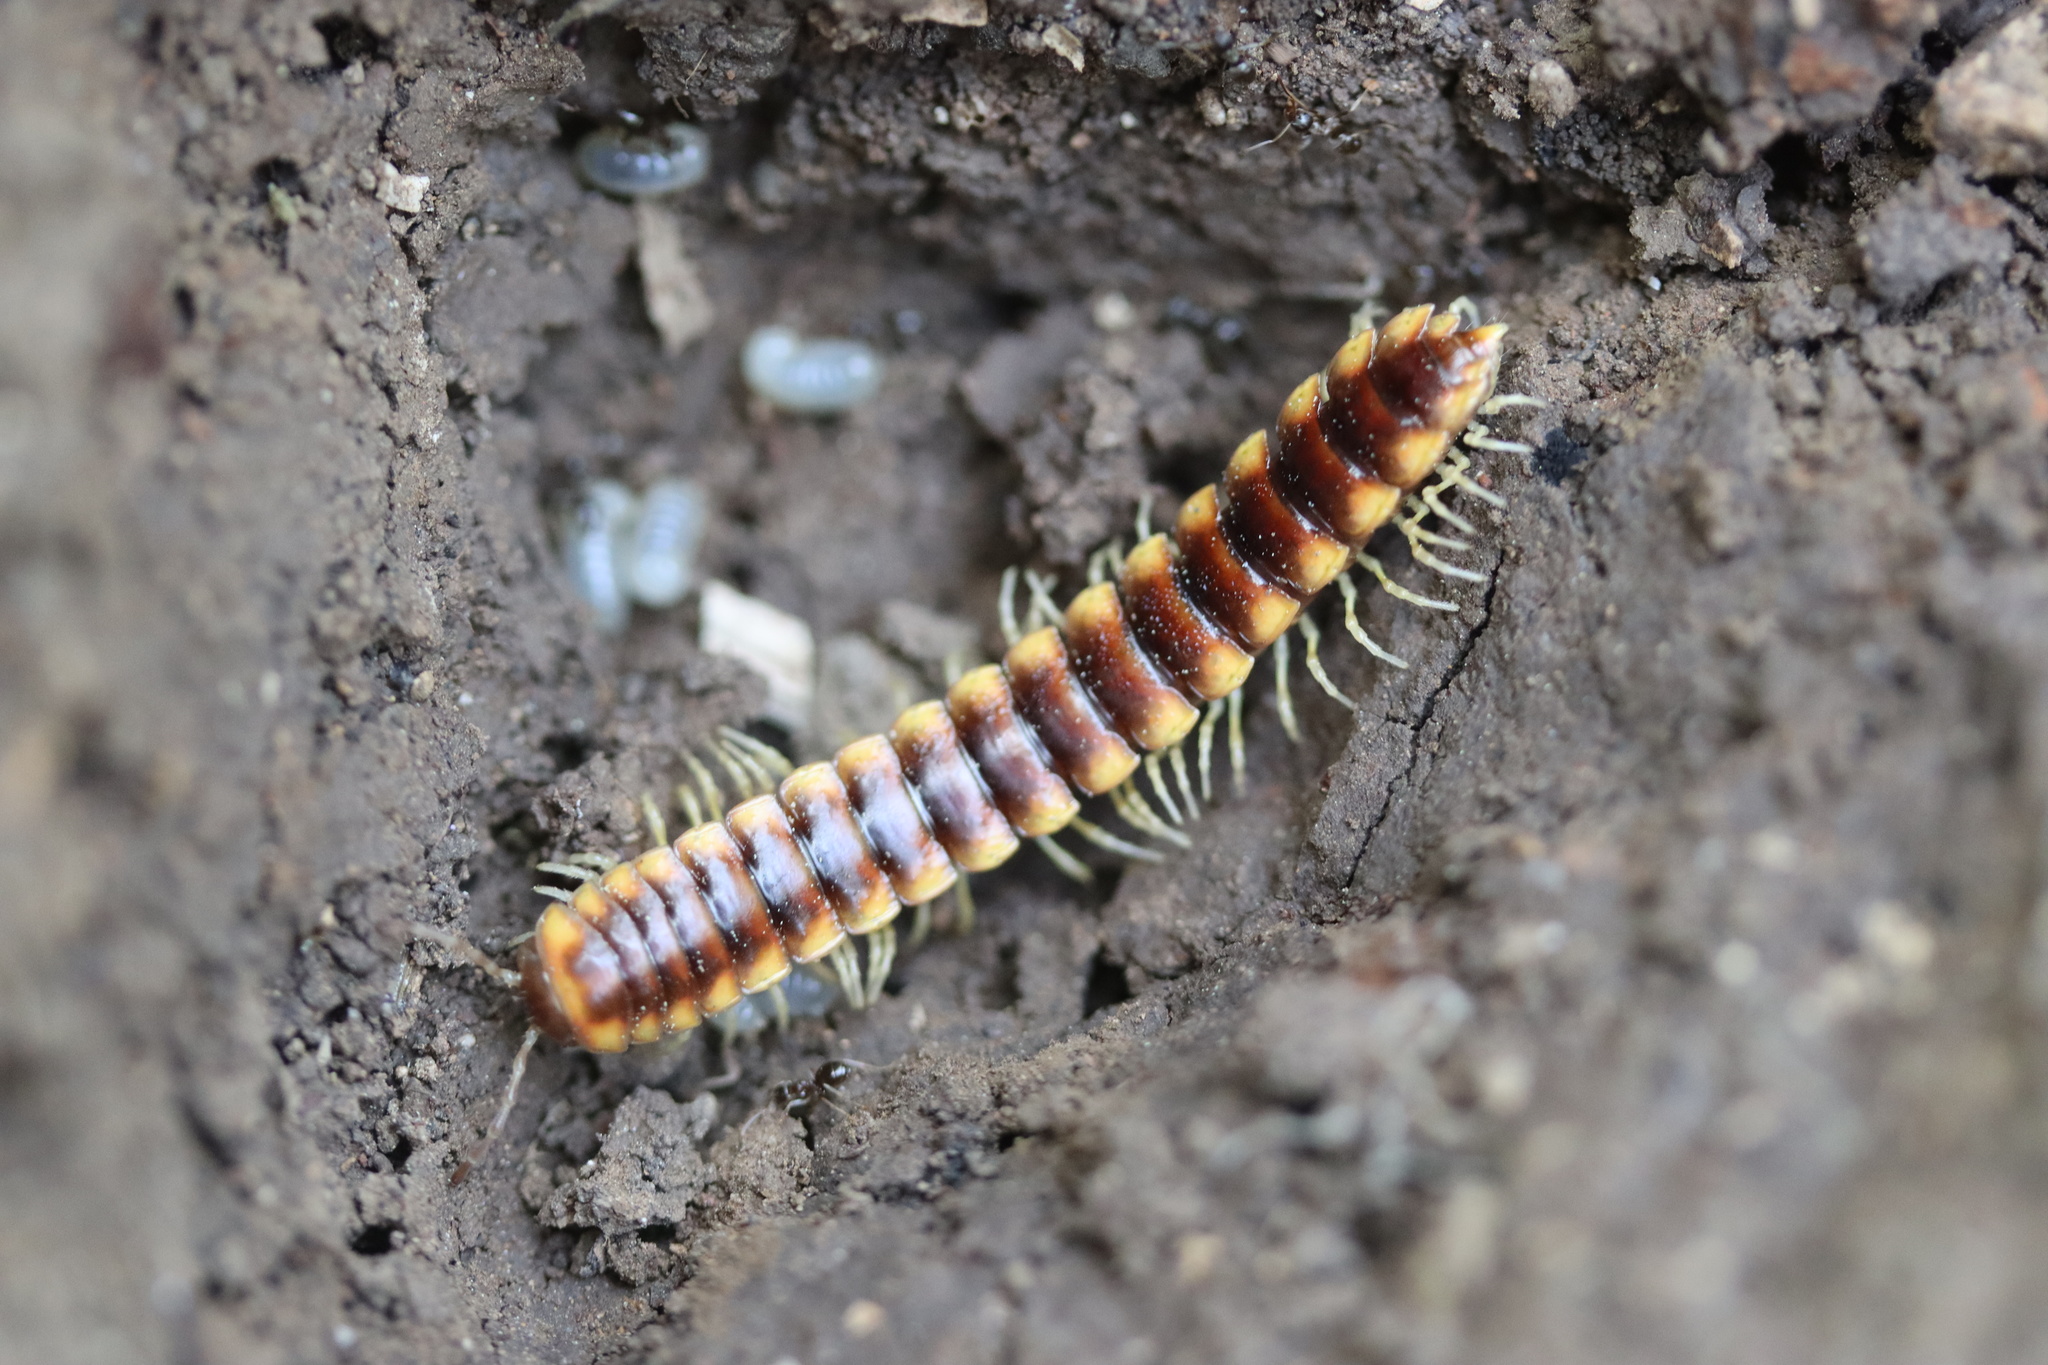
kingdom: Animalia
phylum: Arthropoda
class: Diplopoda
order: Polydesmida
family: Xystodesmidae
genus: Melaphe
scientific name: Melaphe vestita
